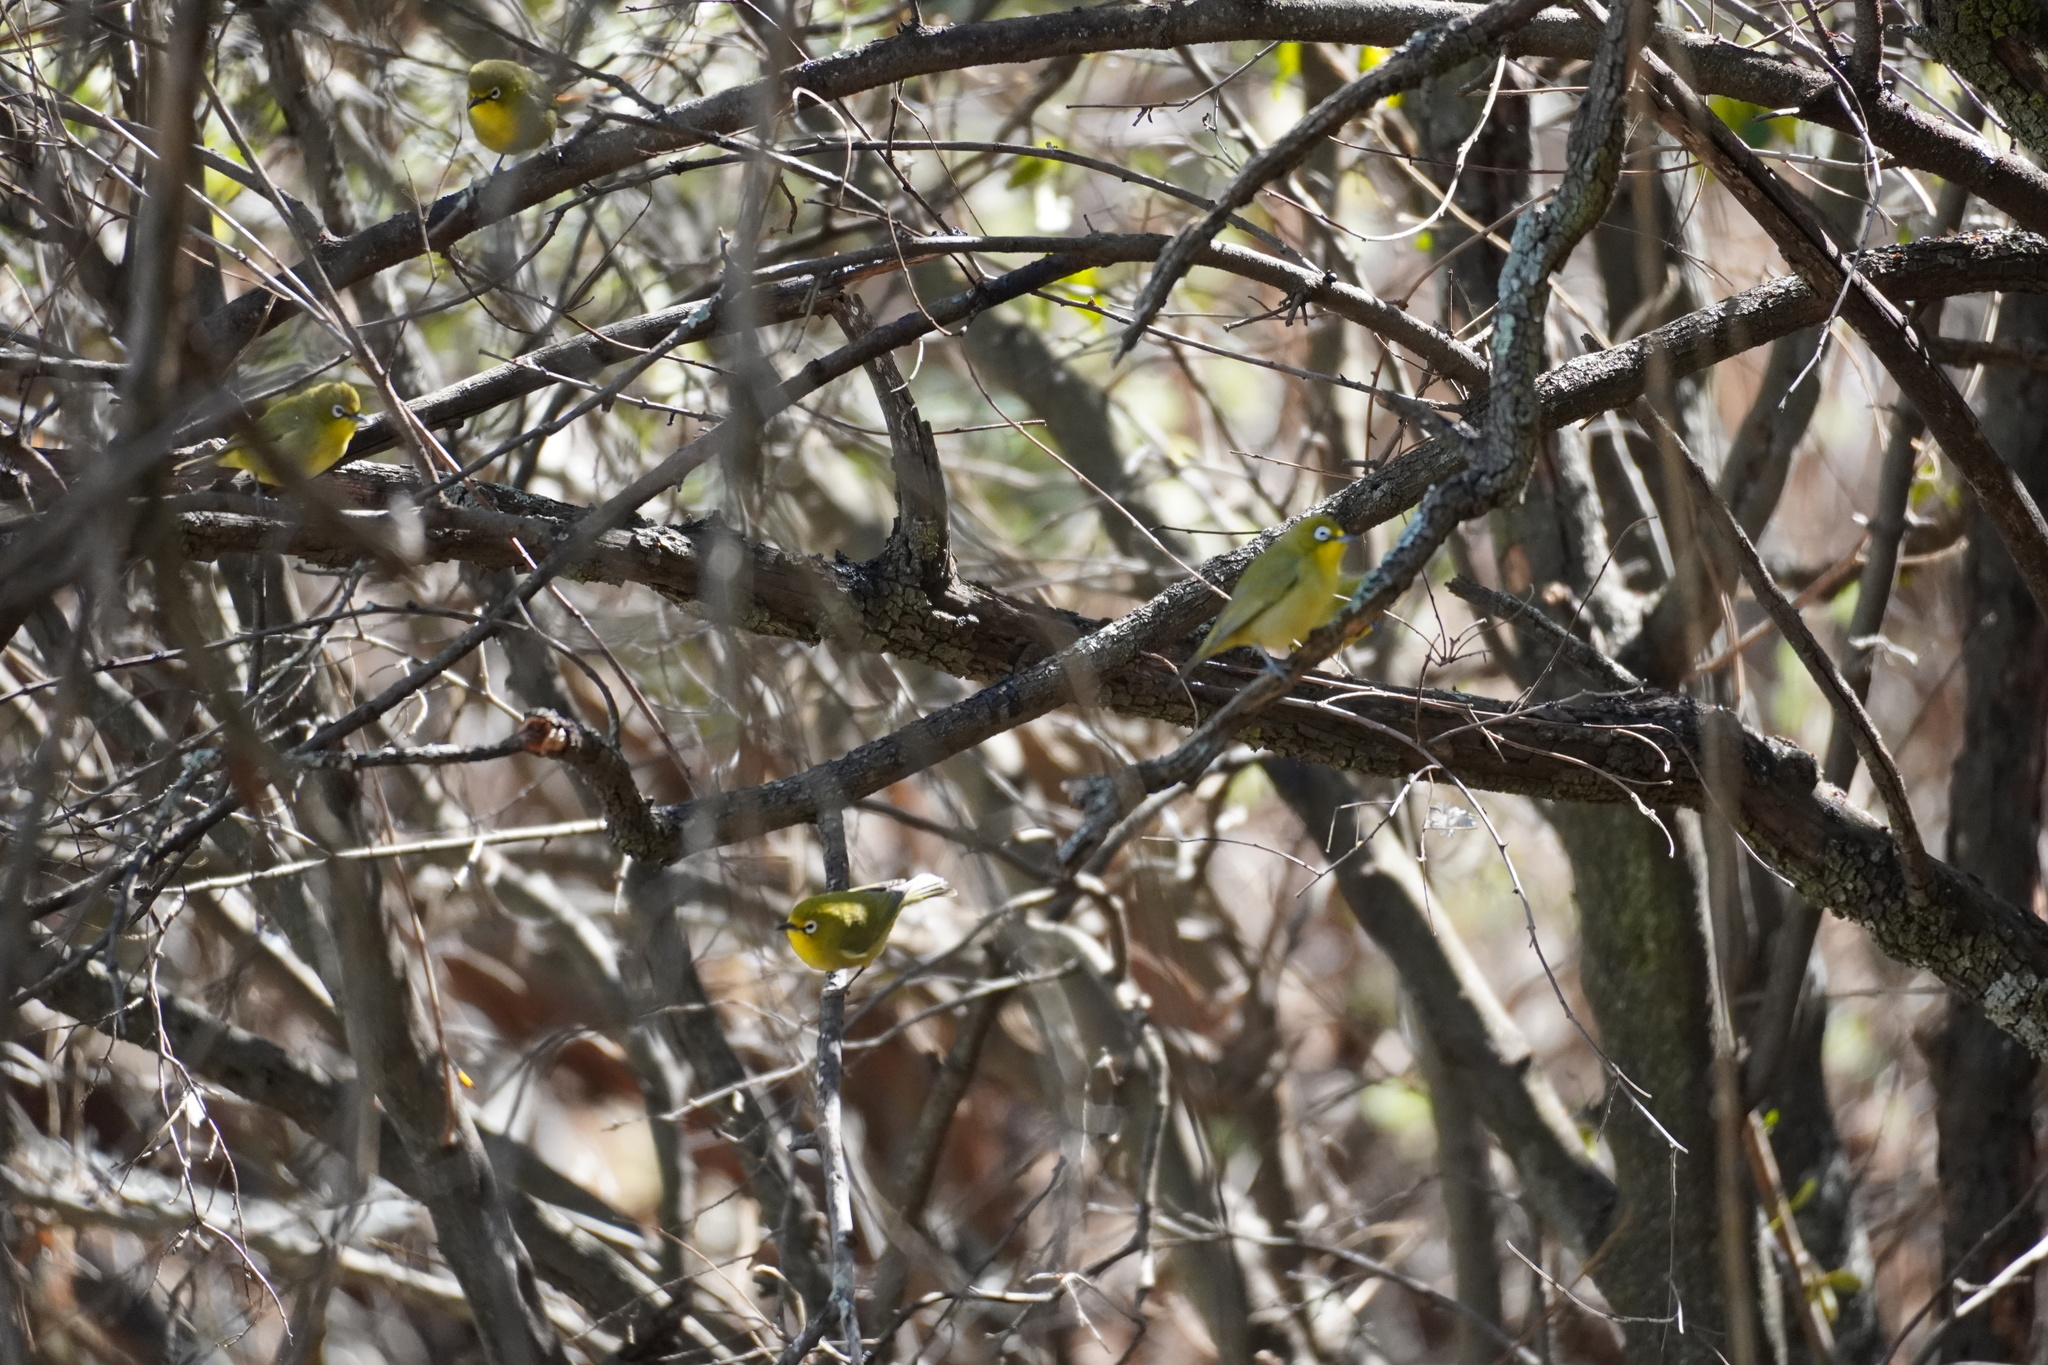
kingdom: Animalia
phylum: Chordata
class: Aves
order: Passeriformes
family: Zosteropidae
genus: Zosterops
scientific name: Zosterops virens
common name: Cape white-eye
